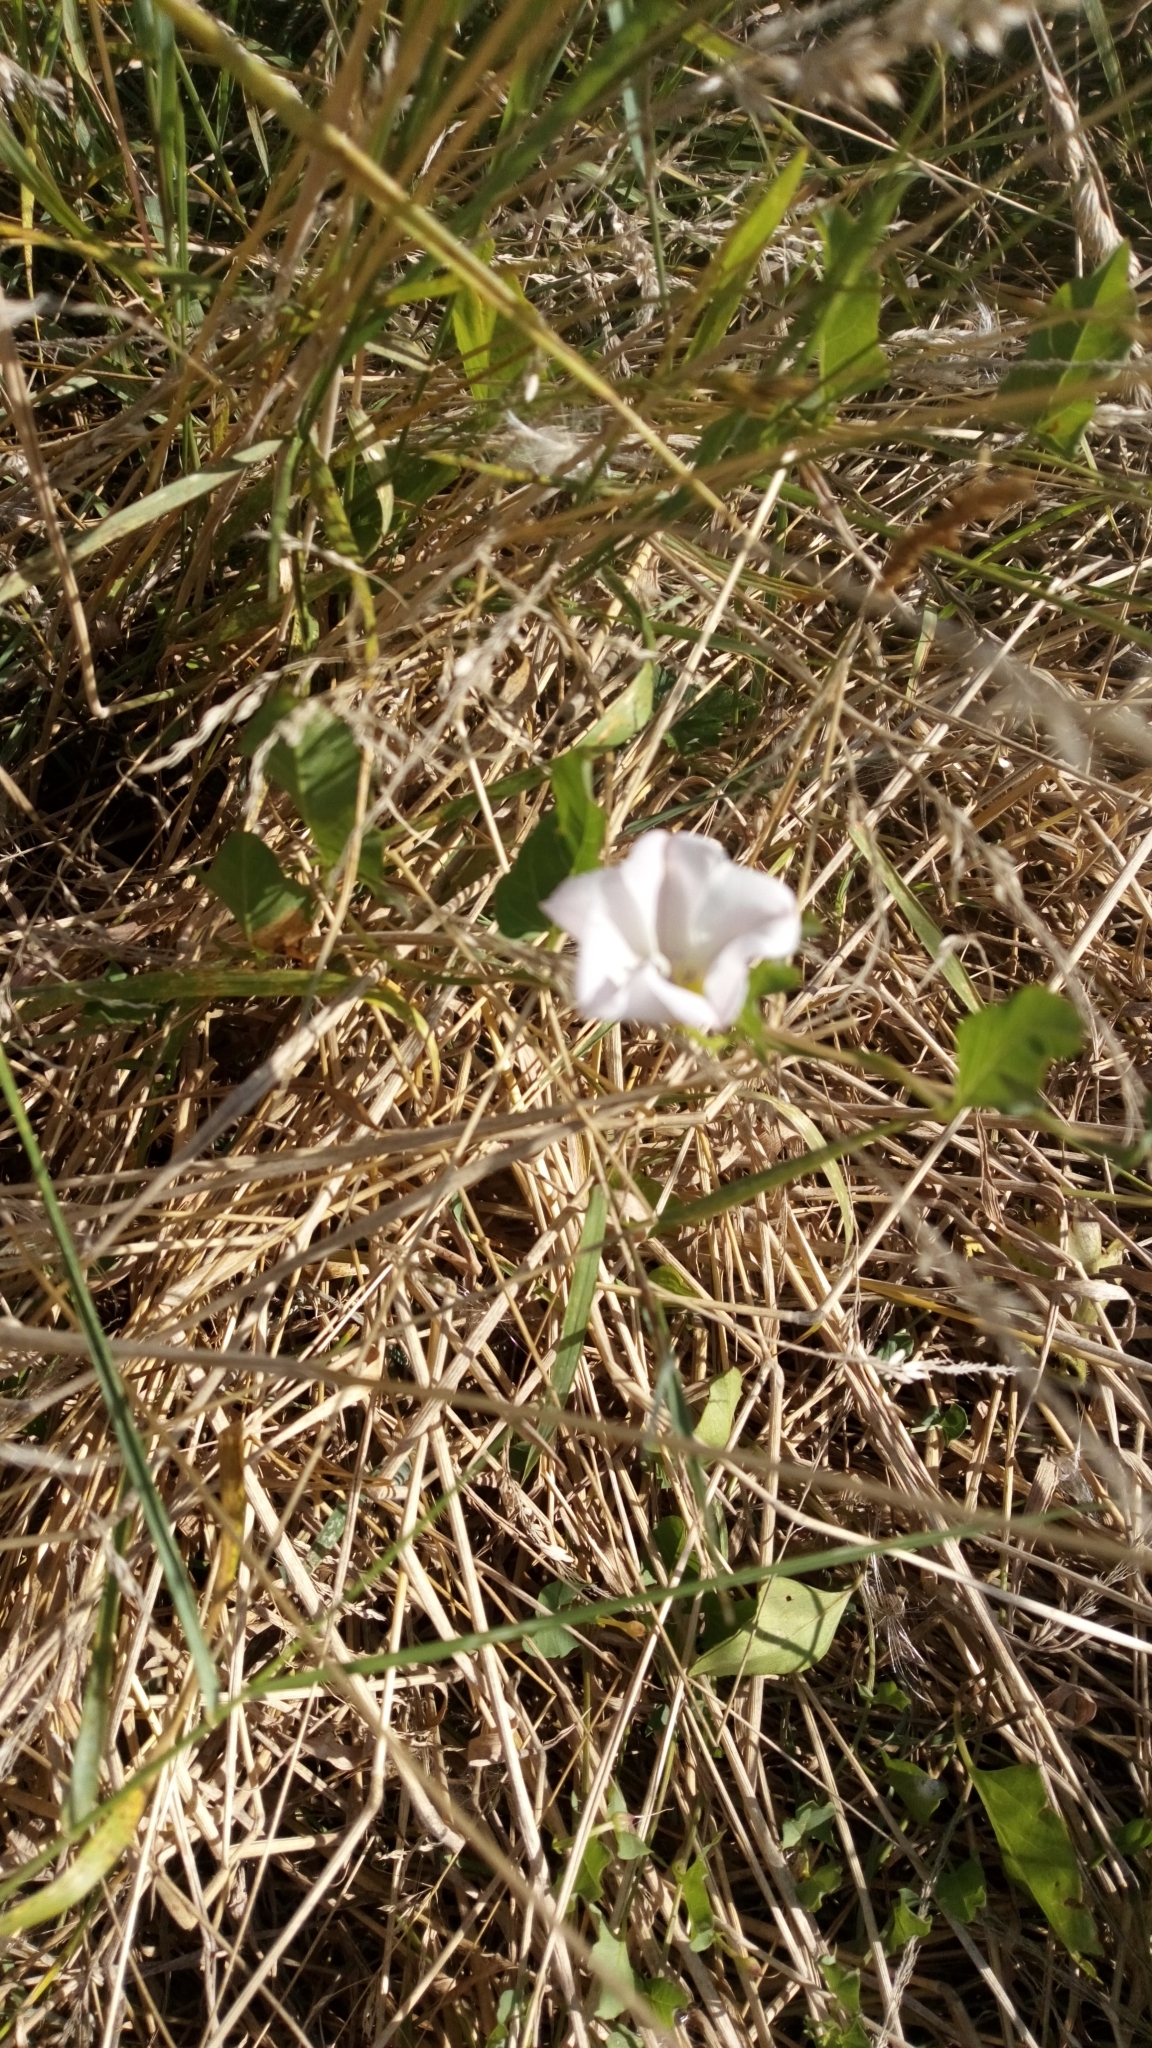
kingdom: Plantae
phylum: Tracheophyta
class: Magnoliopsida
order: Solanales
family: Convolvulaceae
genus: Convolvulus
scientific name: Convolvulus arvensis
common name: Field bindweed
